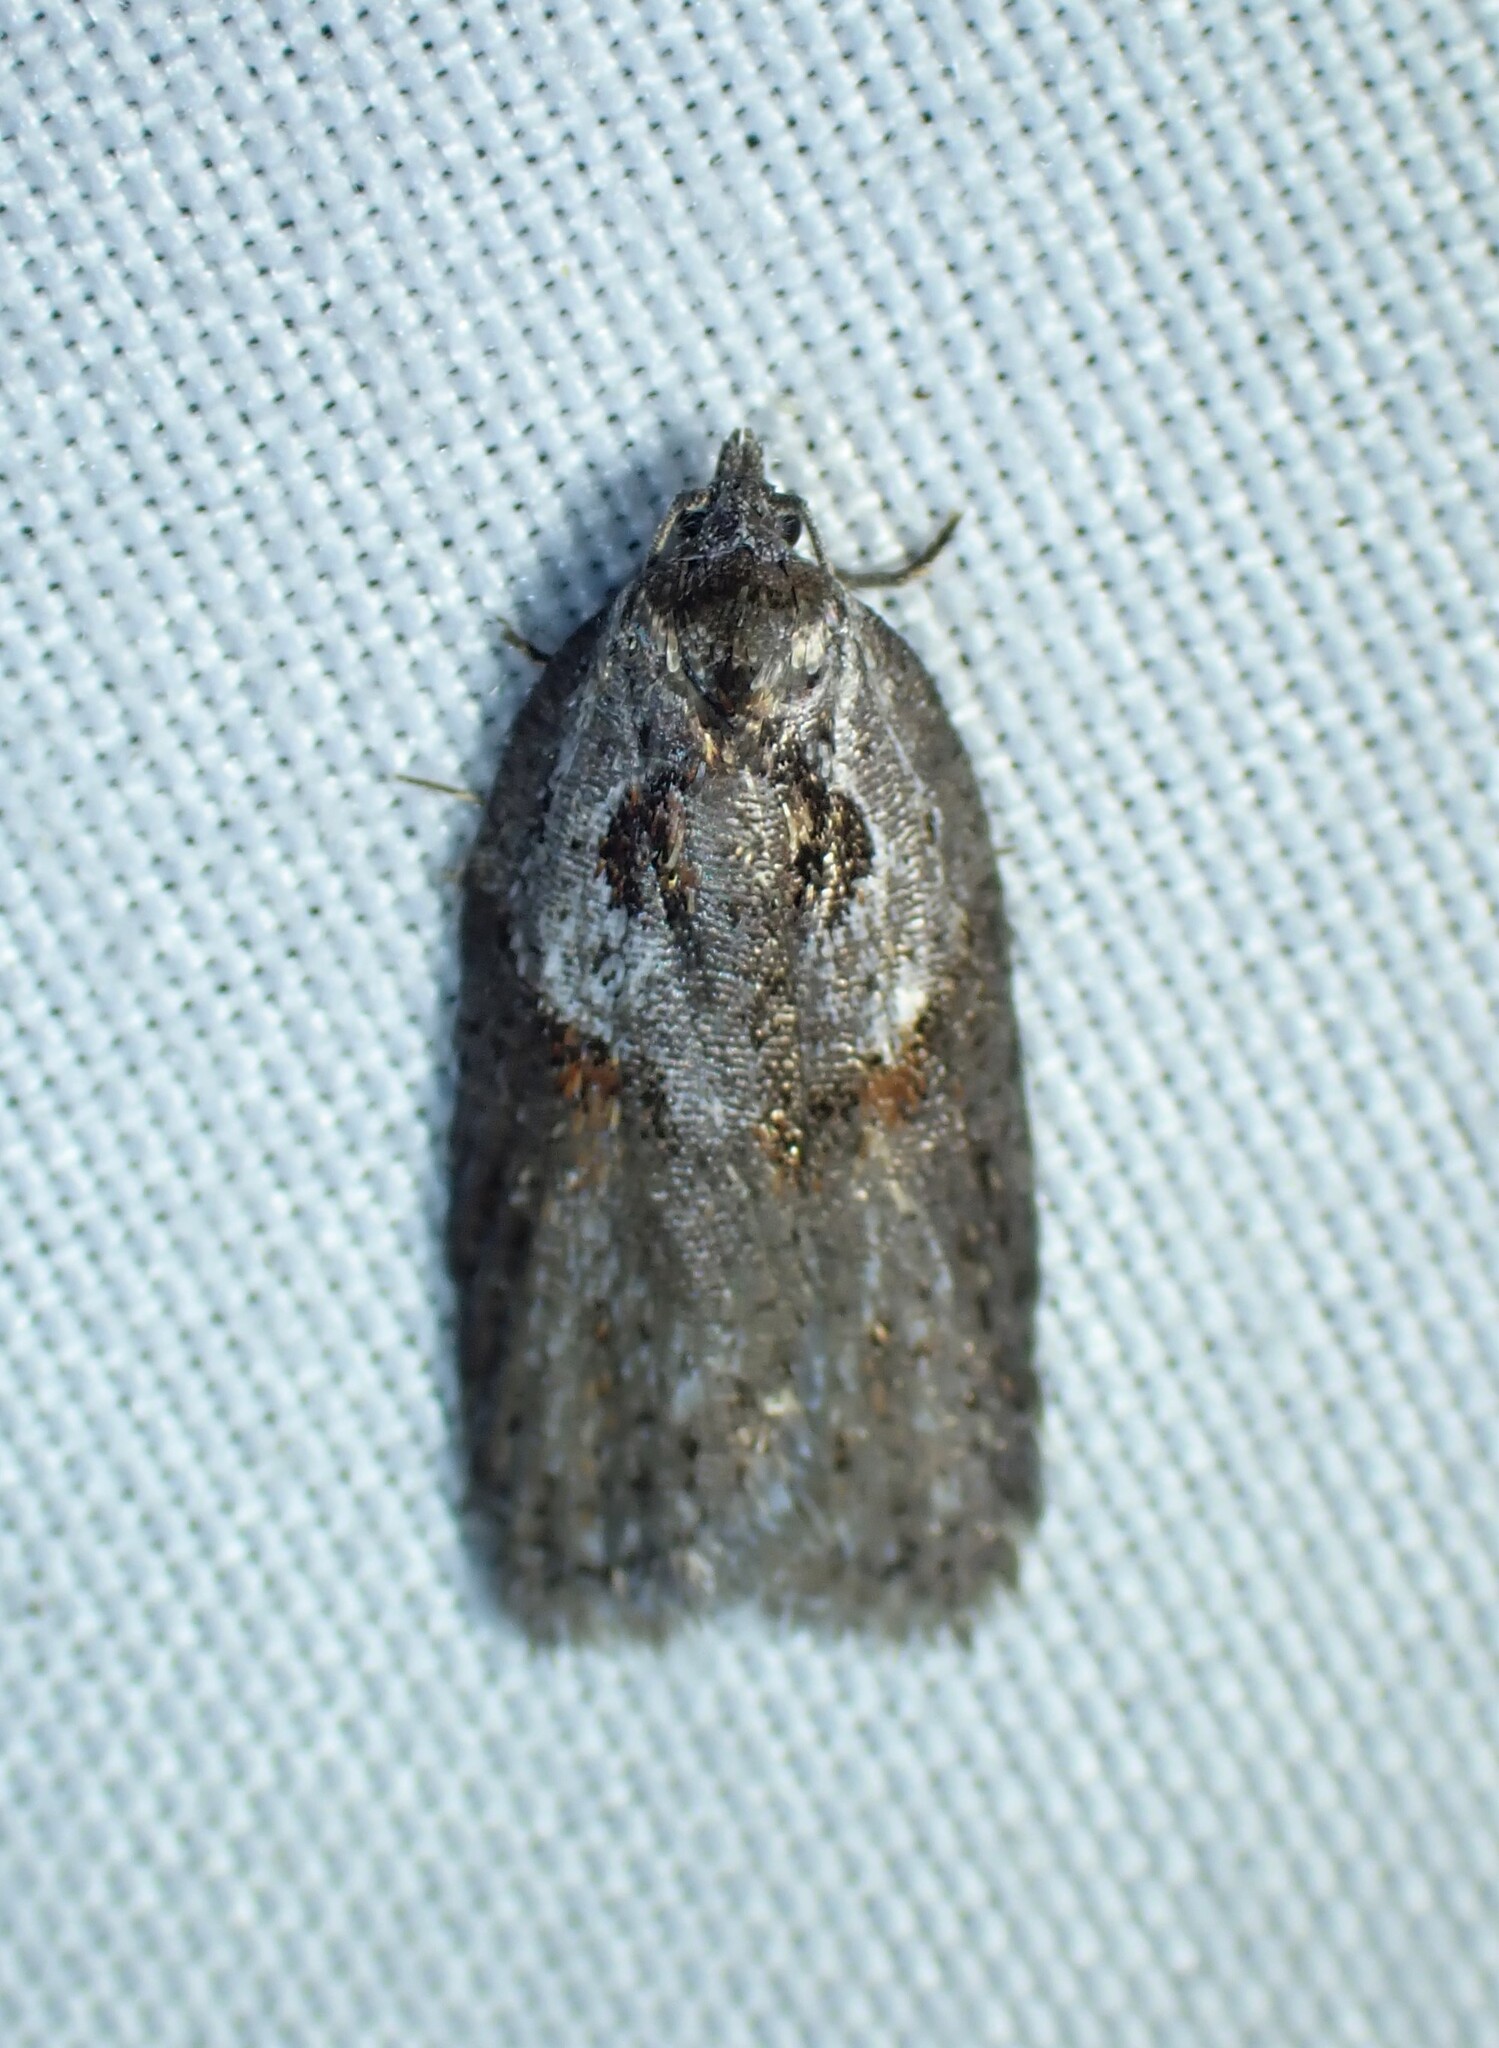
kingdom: Animalia
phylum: Arthropoda
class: Insecta
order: Lepidoptera
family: Tortricidae
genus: Acleris
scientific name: Acleris maculidorsana
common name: Stained-back leafroller moth
